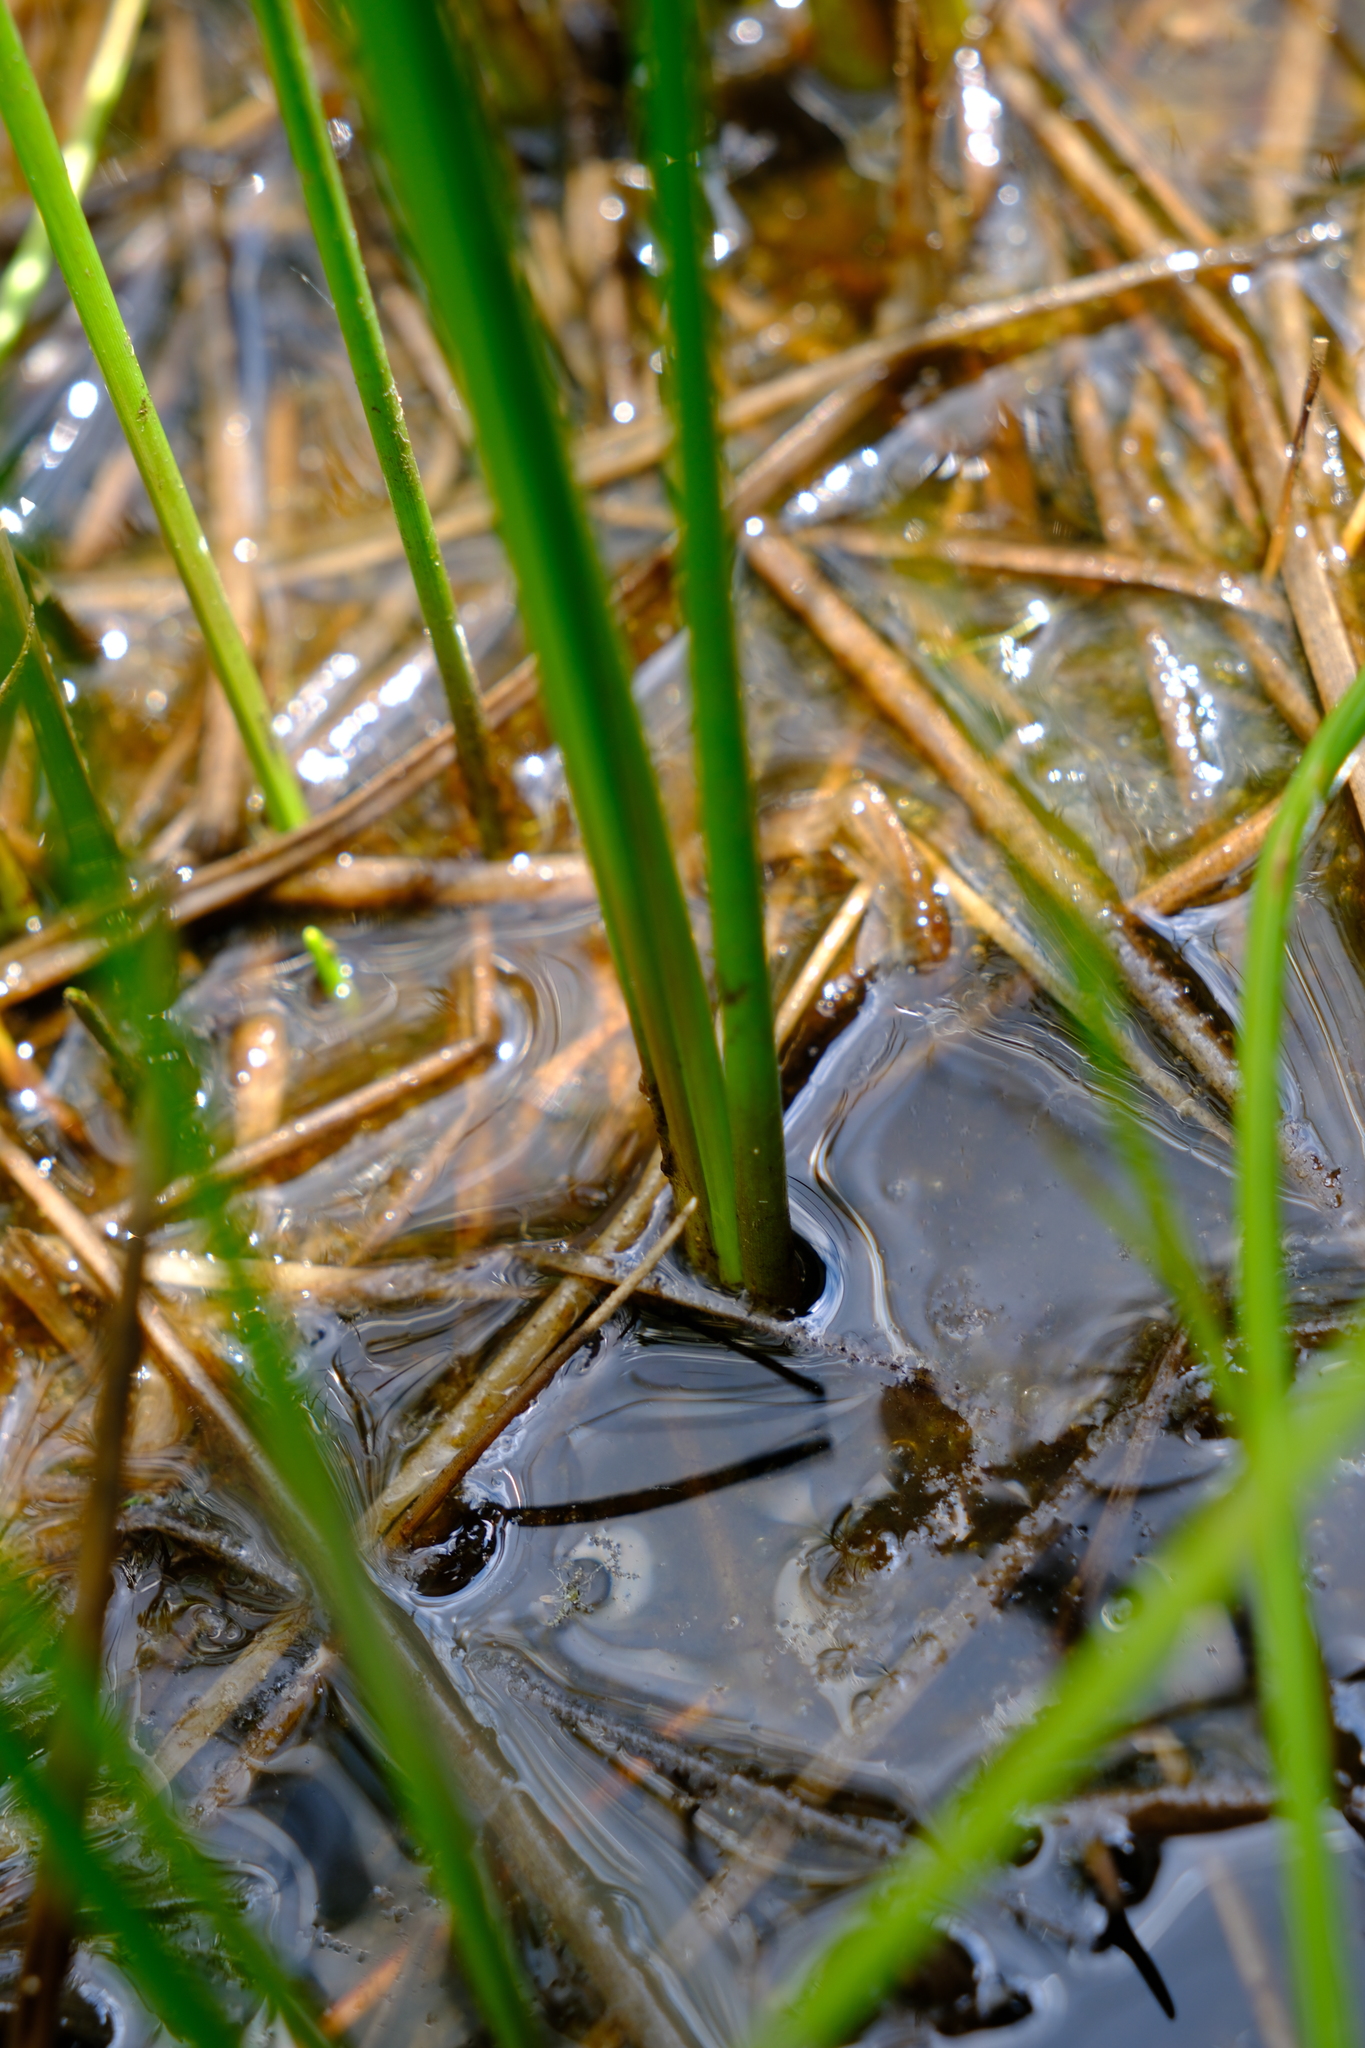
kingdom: Plantae
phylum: Tracheophyta
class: Liliopsida
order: Alismatales
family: Scheuchzeriaceae
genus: Scheuchzeria
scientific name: Scheuchzeria palustris
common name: Rannoch-rush
